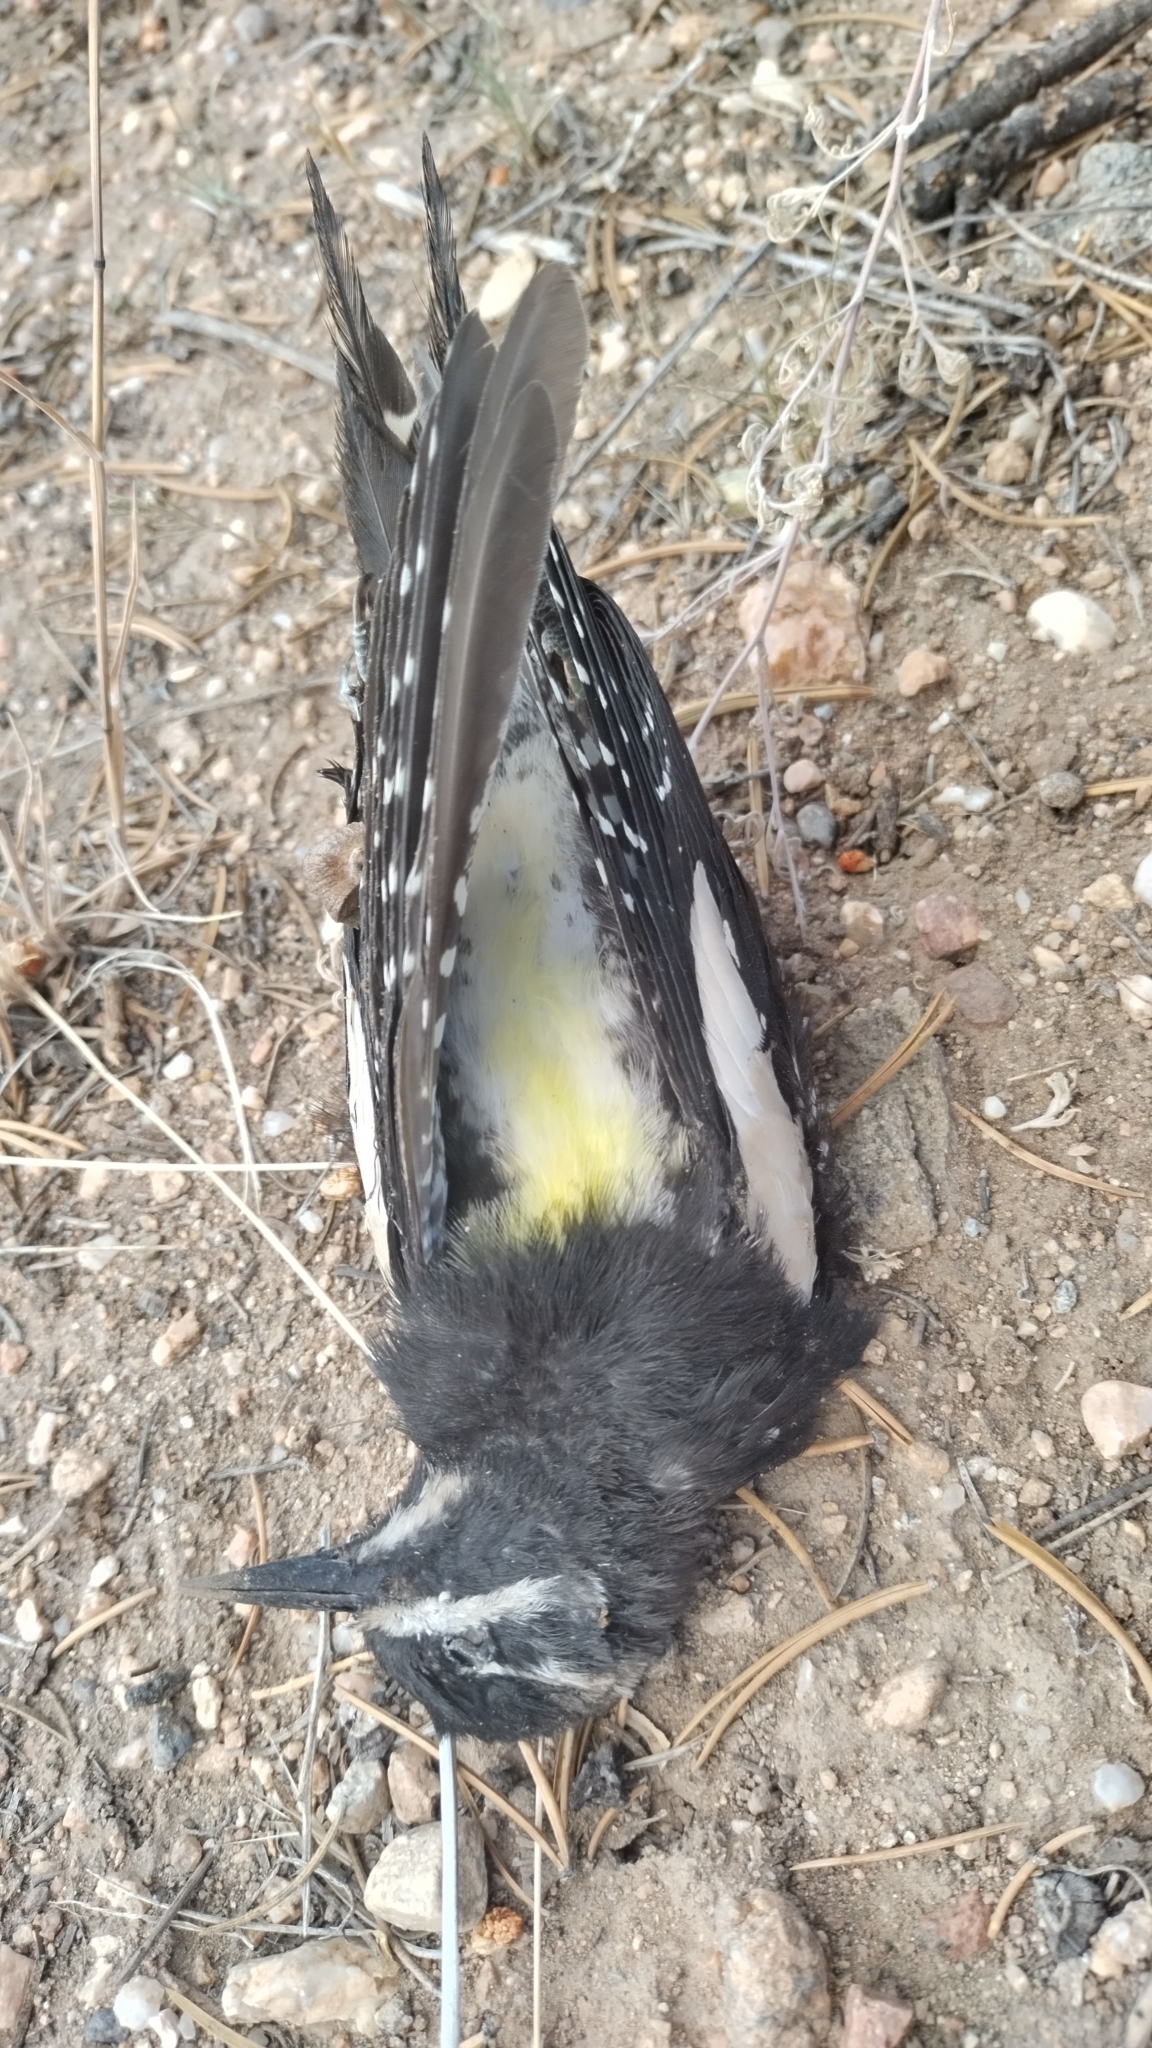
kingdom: Animalia
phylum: Chordata
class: Aves
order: Piciformes
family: Picidae
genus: Sphyrapicus
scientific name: Sphyrapicus thyroideus
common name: Williamson's sapsucker
